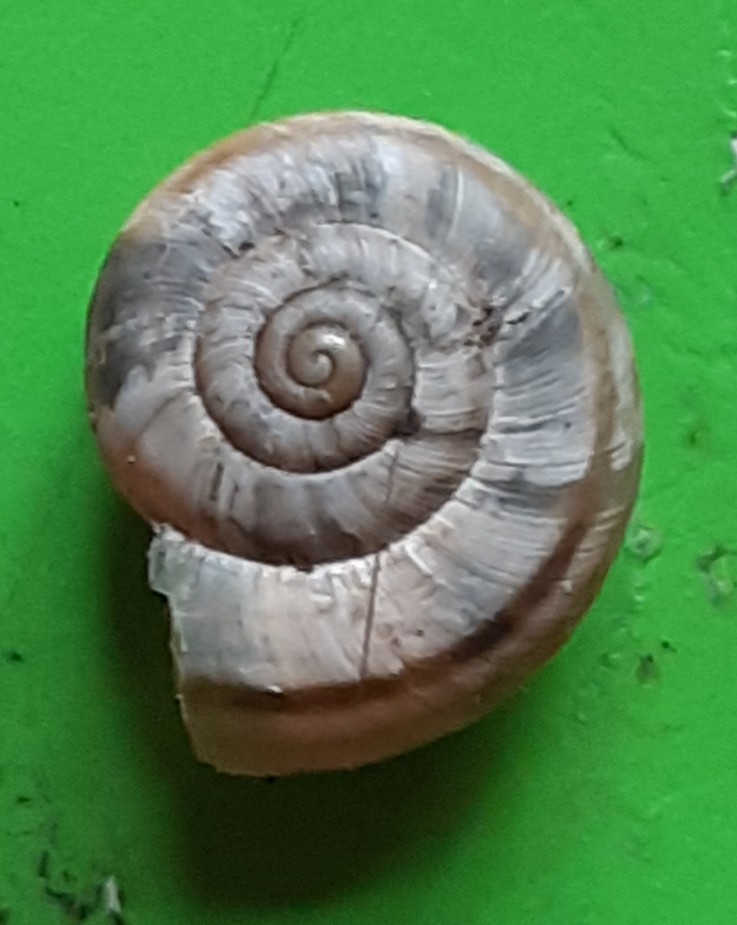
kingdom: Animalia
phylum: Mollusca
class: Gastropoda
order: Stylommatophora
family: Geomitridae
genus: Xerolenta
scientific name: Xerolenta obvia
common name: White heath snail
